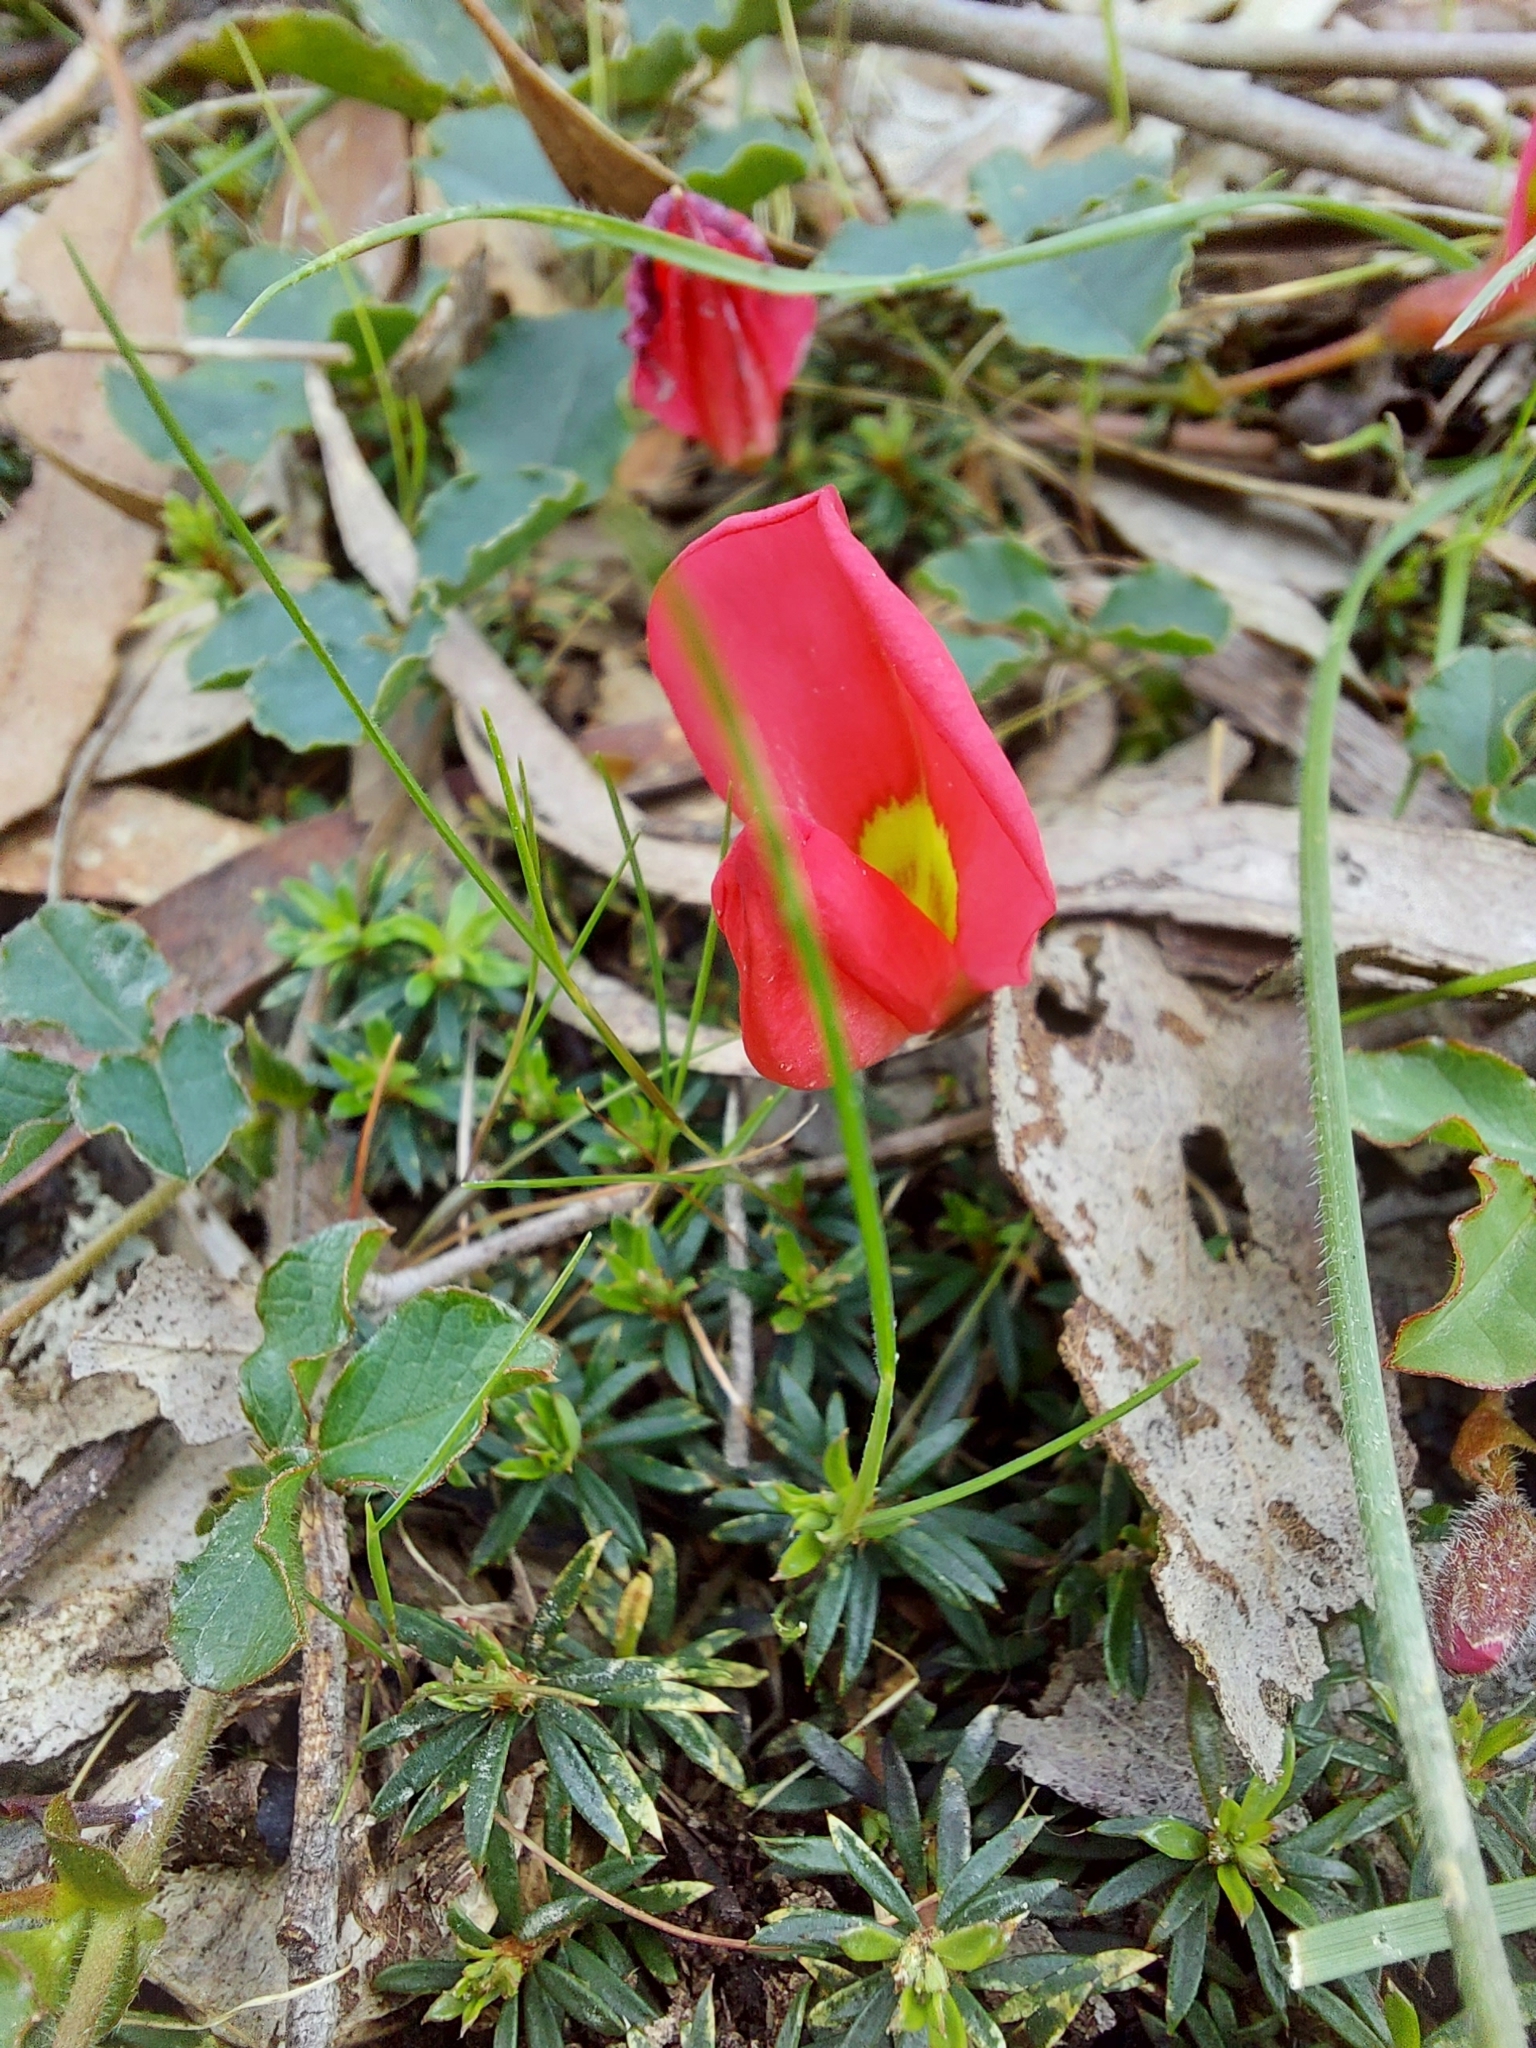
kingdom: Plantae
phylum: Tracheophyta
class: Magnoliopsida
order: Fabales
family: Fabaceae
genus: Kennedia
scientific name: Kennedia prostrata
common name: Running-postman
